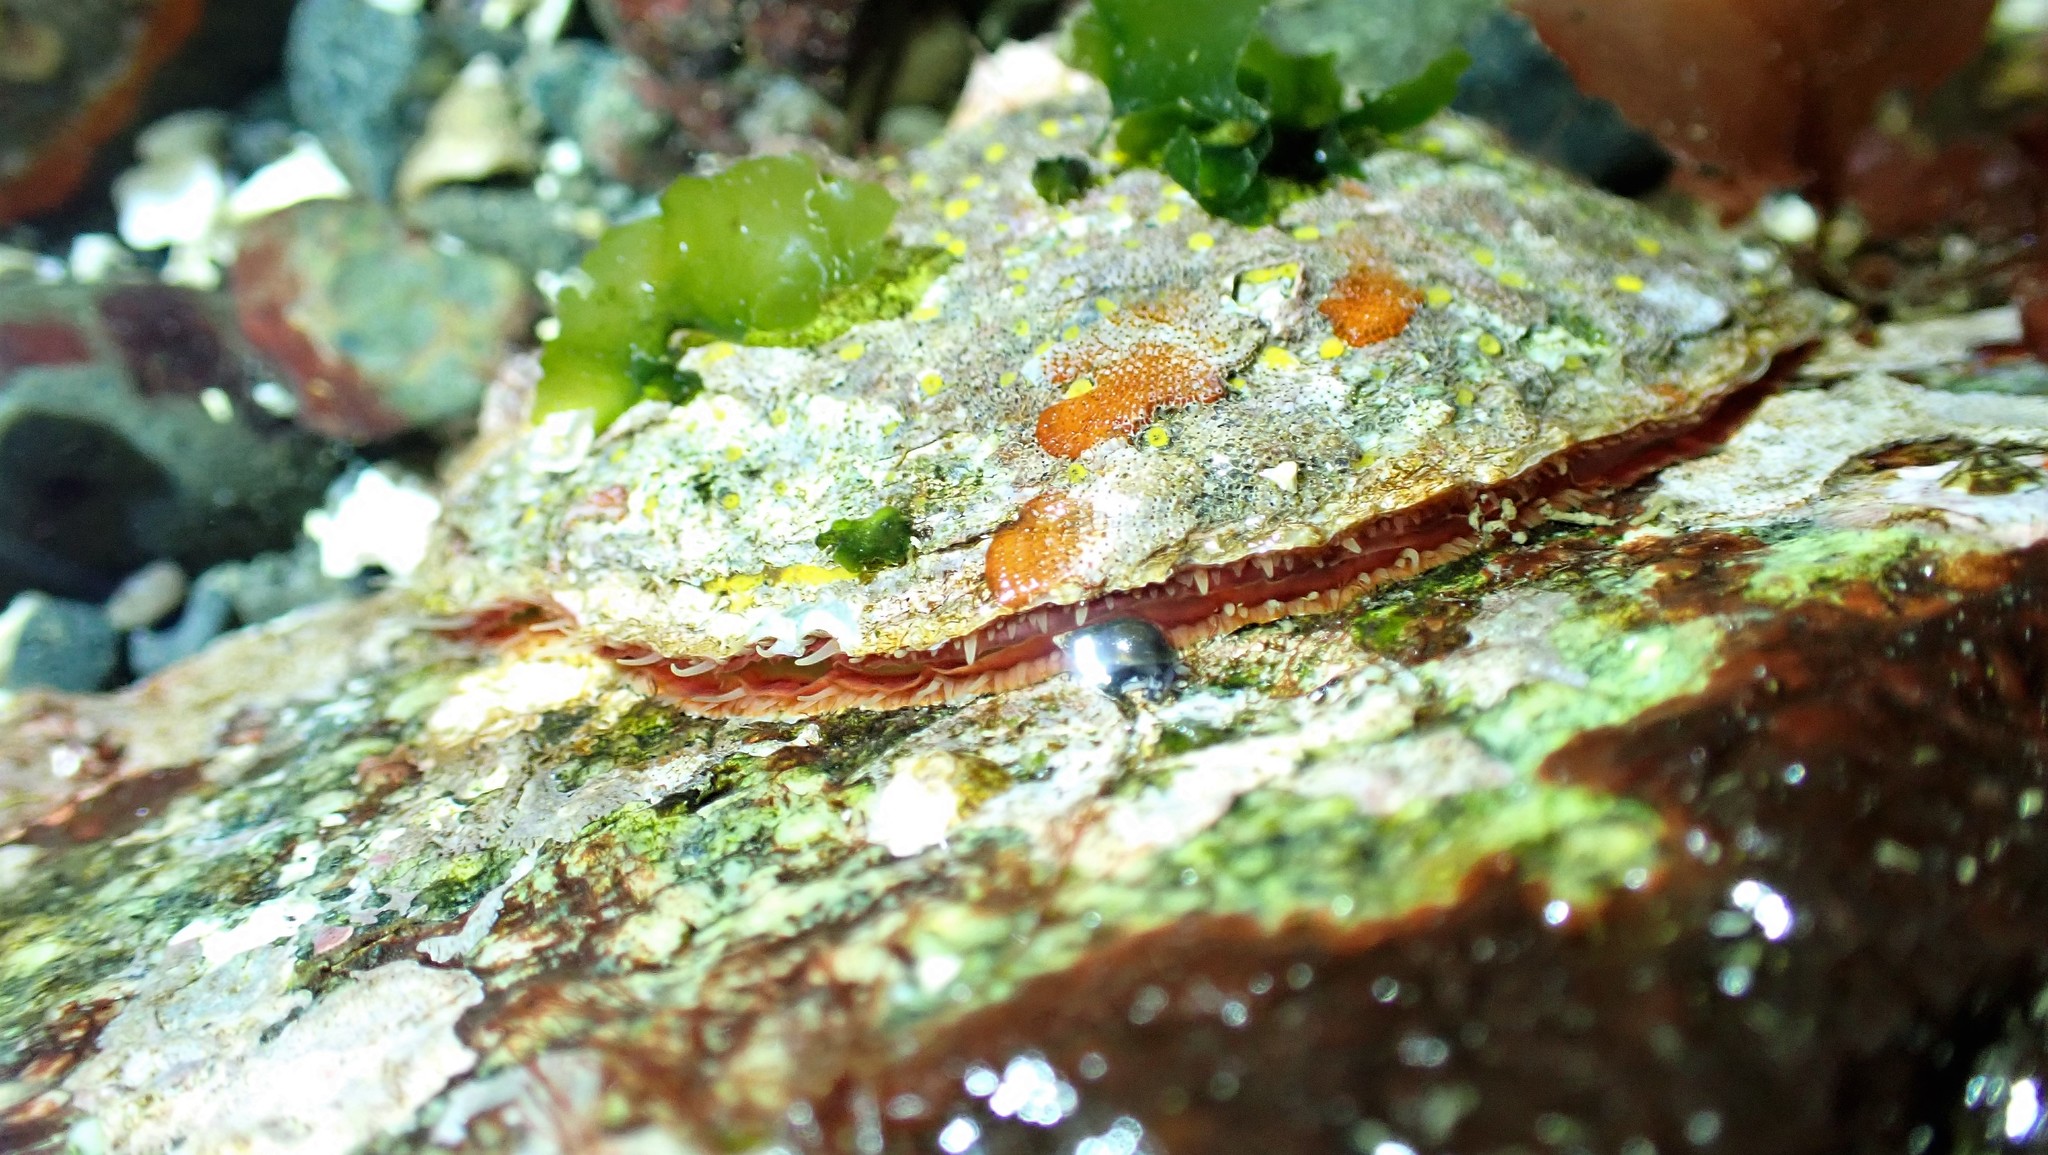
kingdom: Animalia
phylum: Mollusca
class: Bivalvia
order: Pectinida
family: Anomiidae
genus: Pododesmus
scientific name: Pododesmus macrochisma
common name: Alaska jingle
